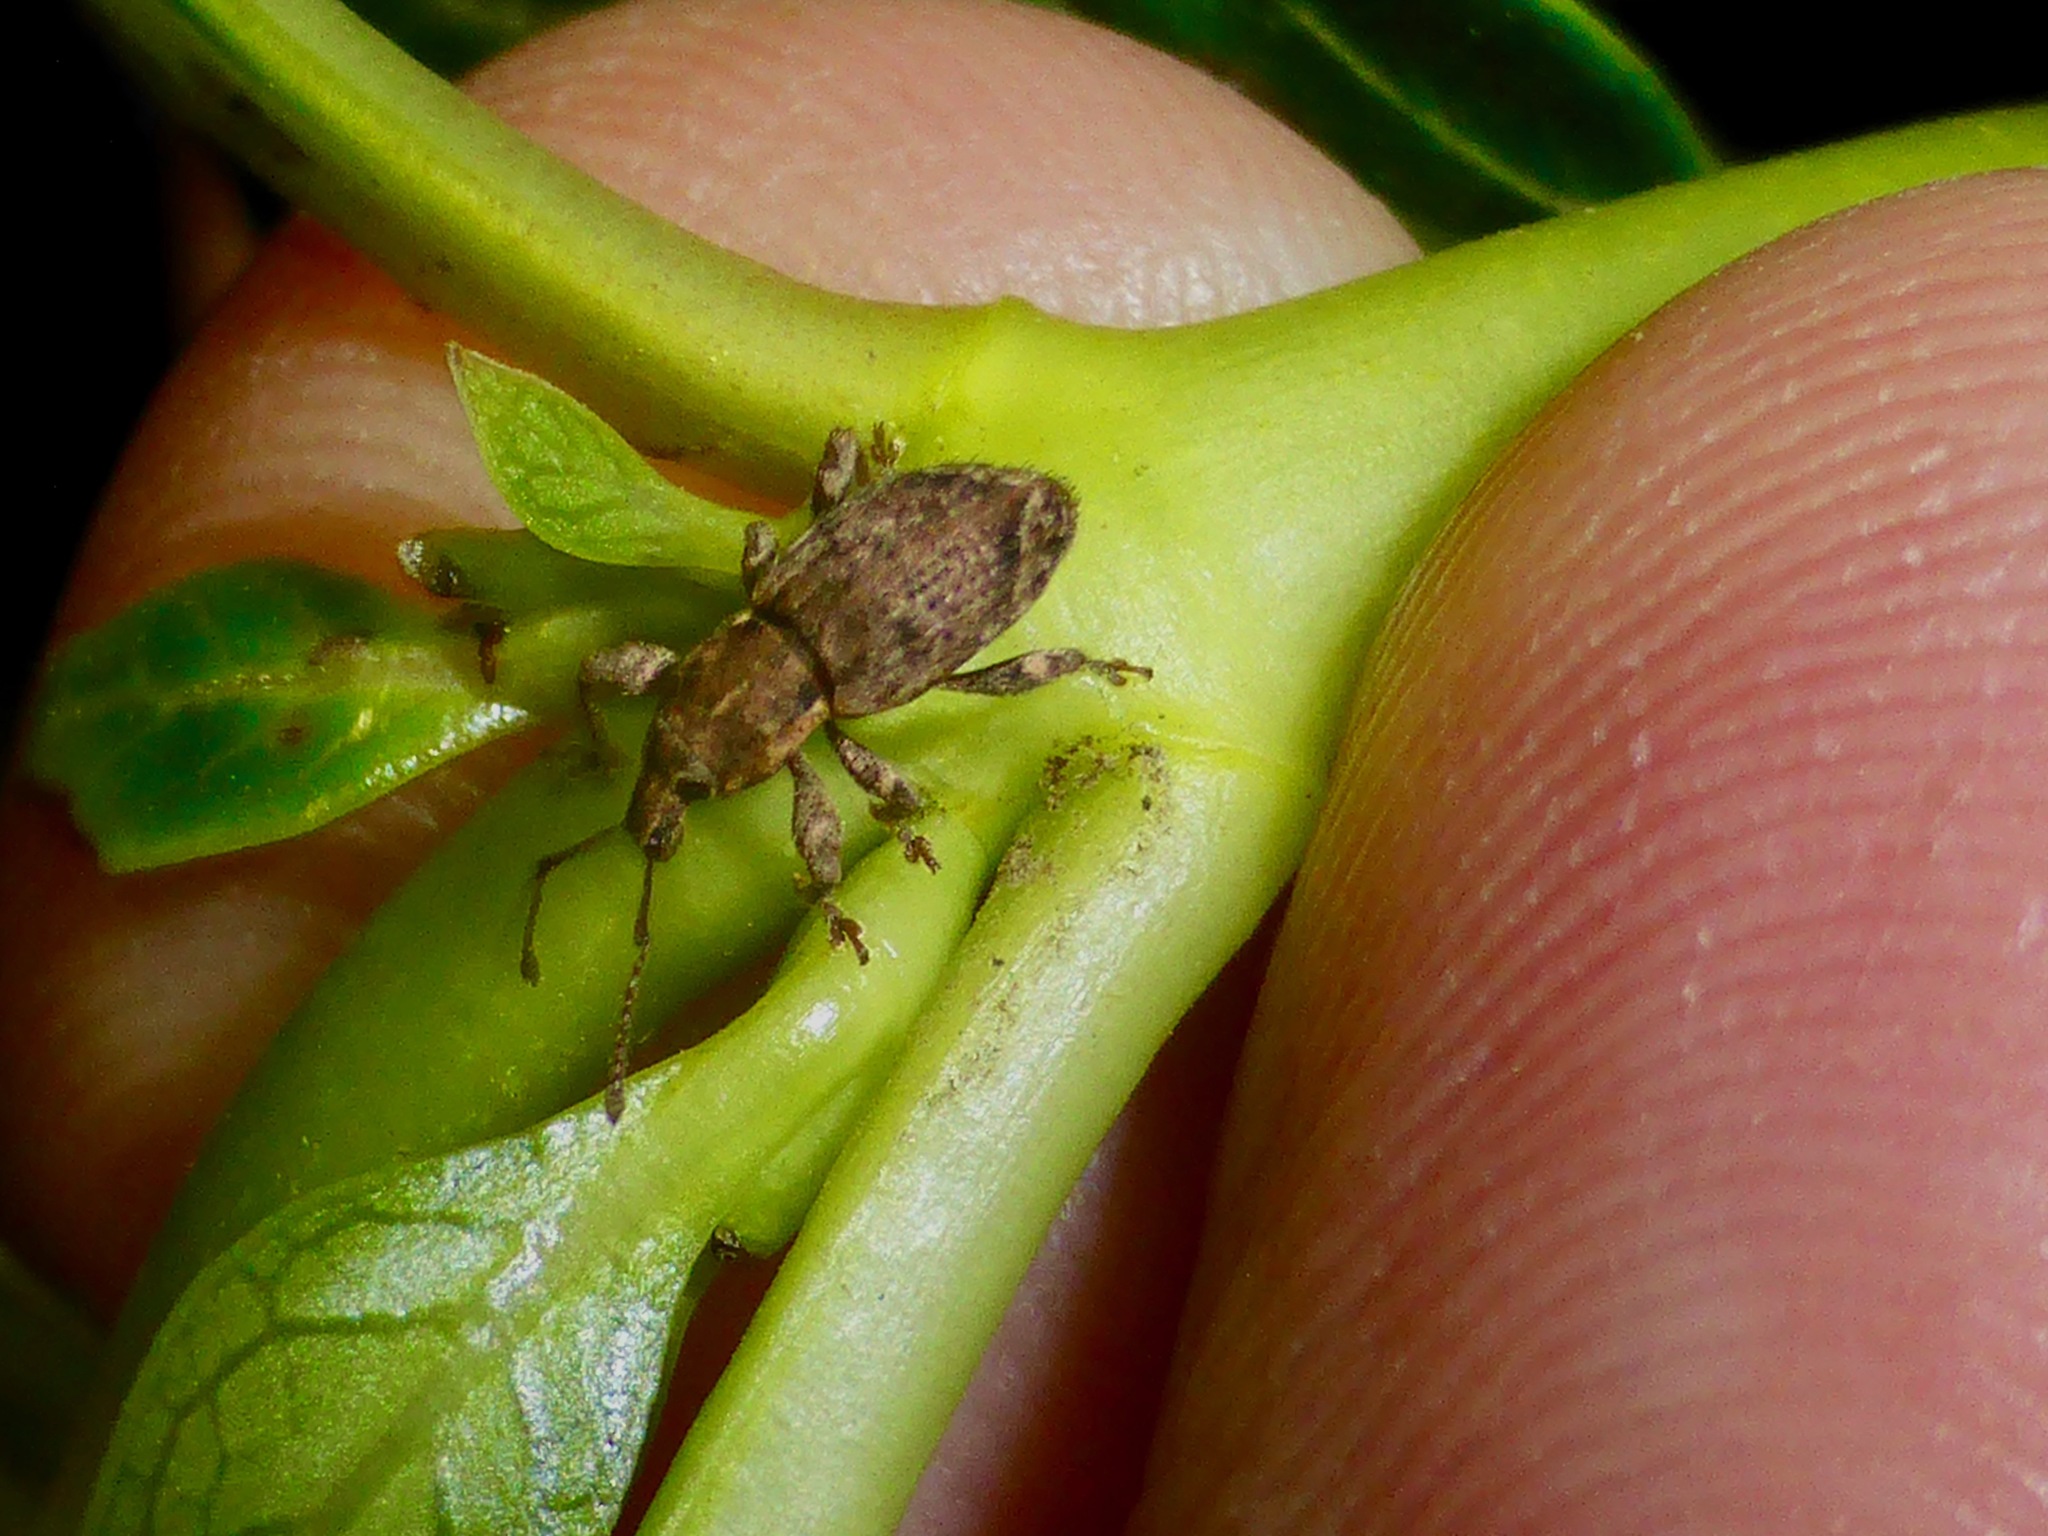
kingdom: Animalia
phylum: Arthropoda
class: Insecta
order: Coleoptera
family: Curculionidae
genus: Chalepistes
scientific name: Chalepistes compressus
